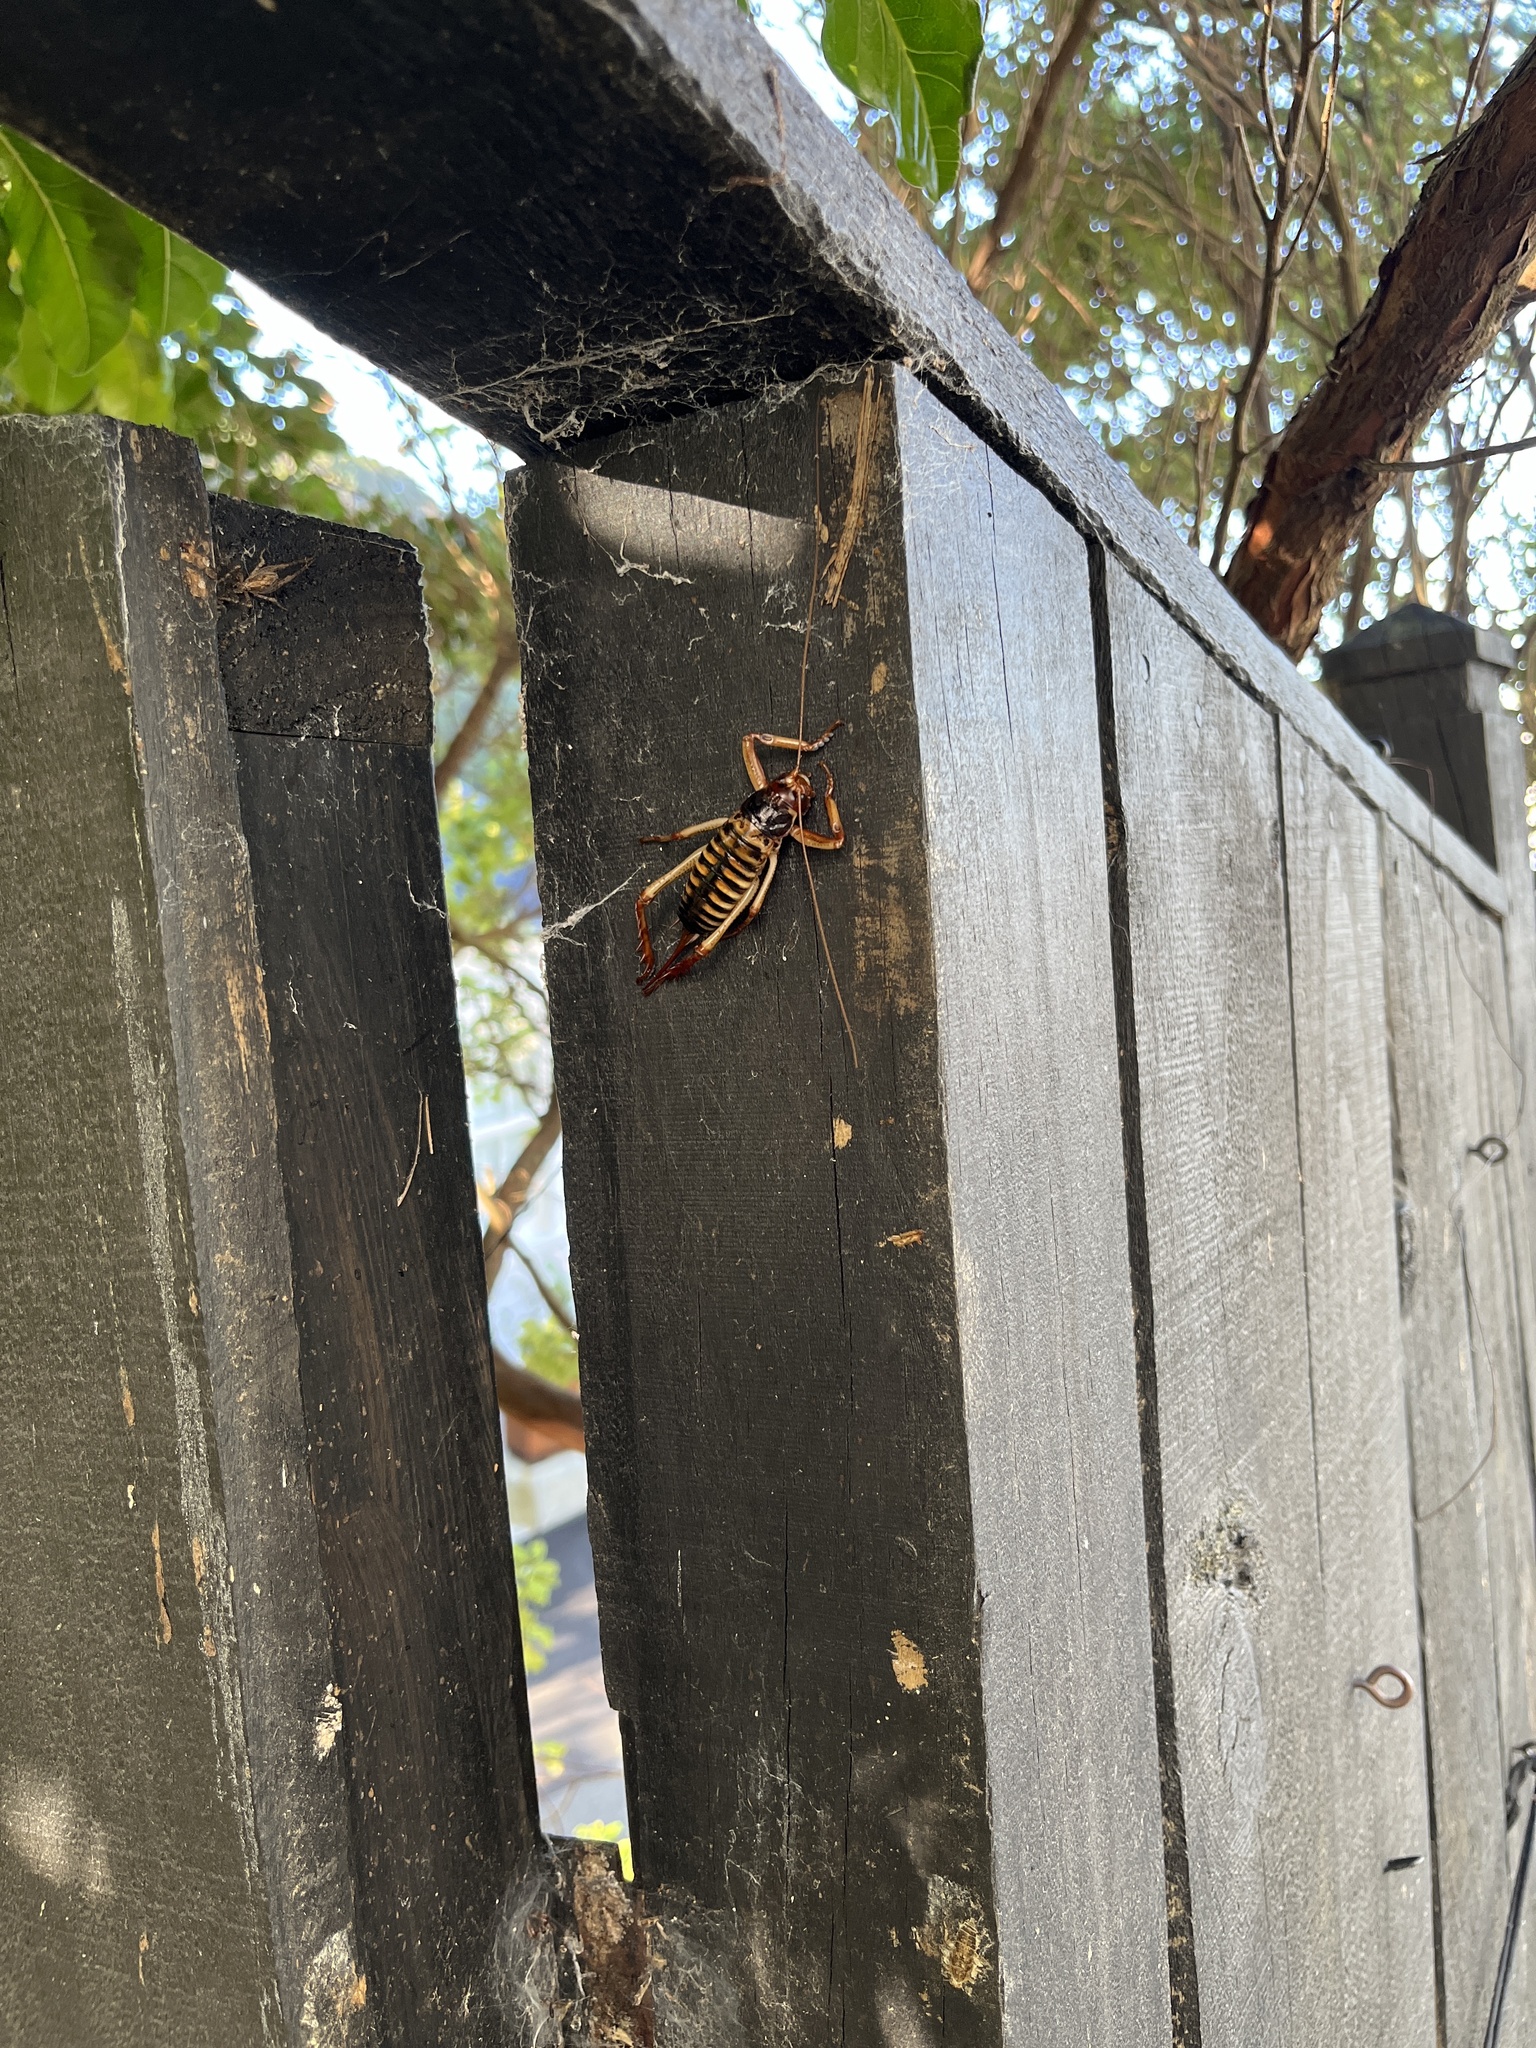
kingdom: Animalia
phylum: Arthropoda
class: Insecta
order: Orthoptera
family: Anostostomatidae
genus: Hemideina
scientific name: Hemideina crassidens
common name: Wellington tree weta
